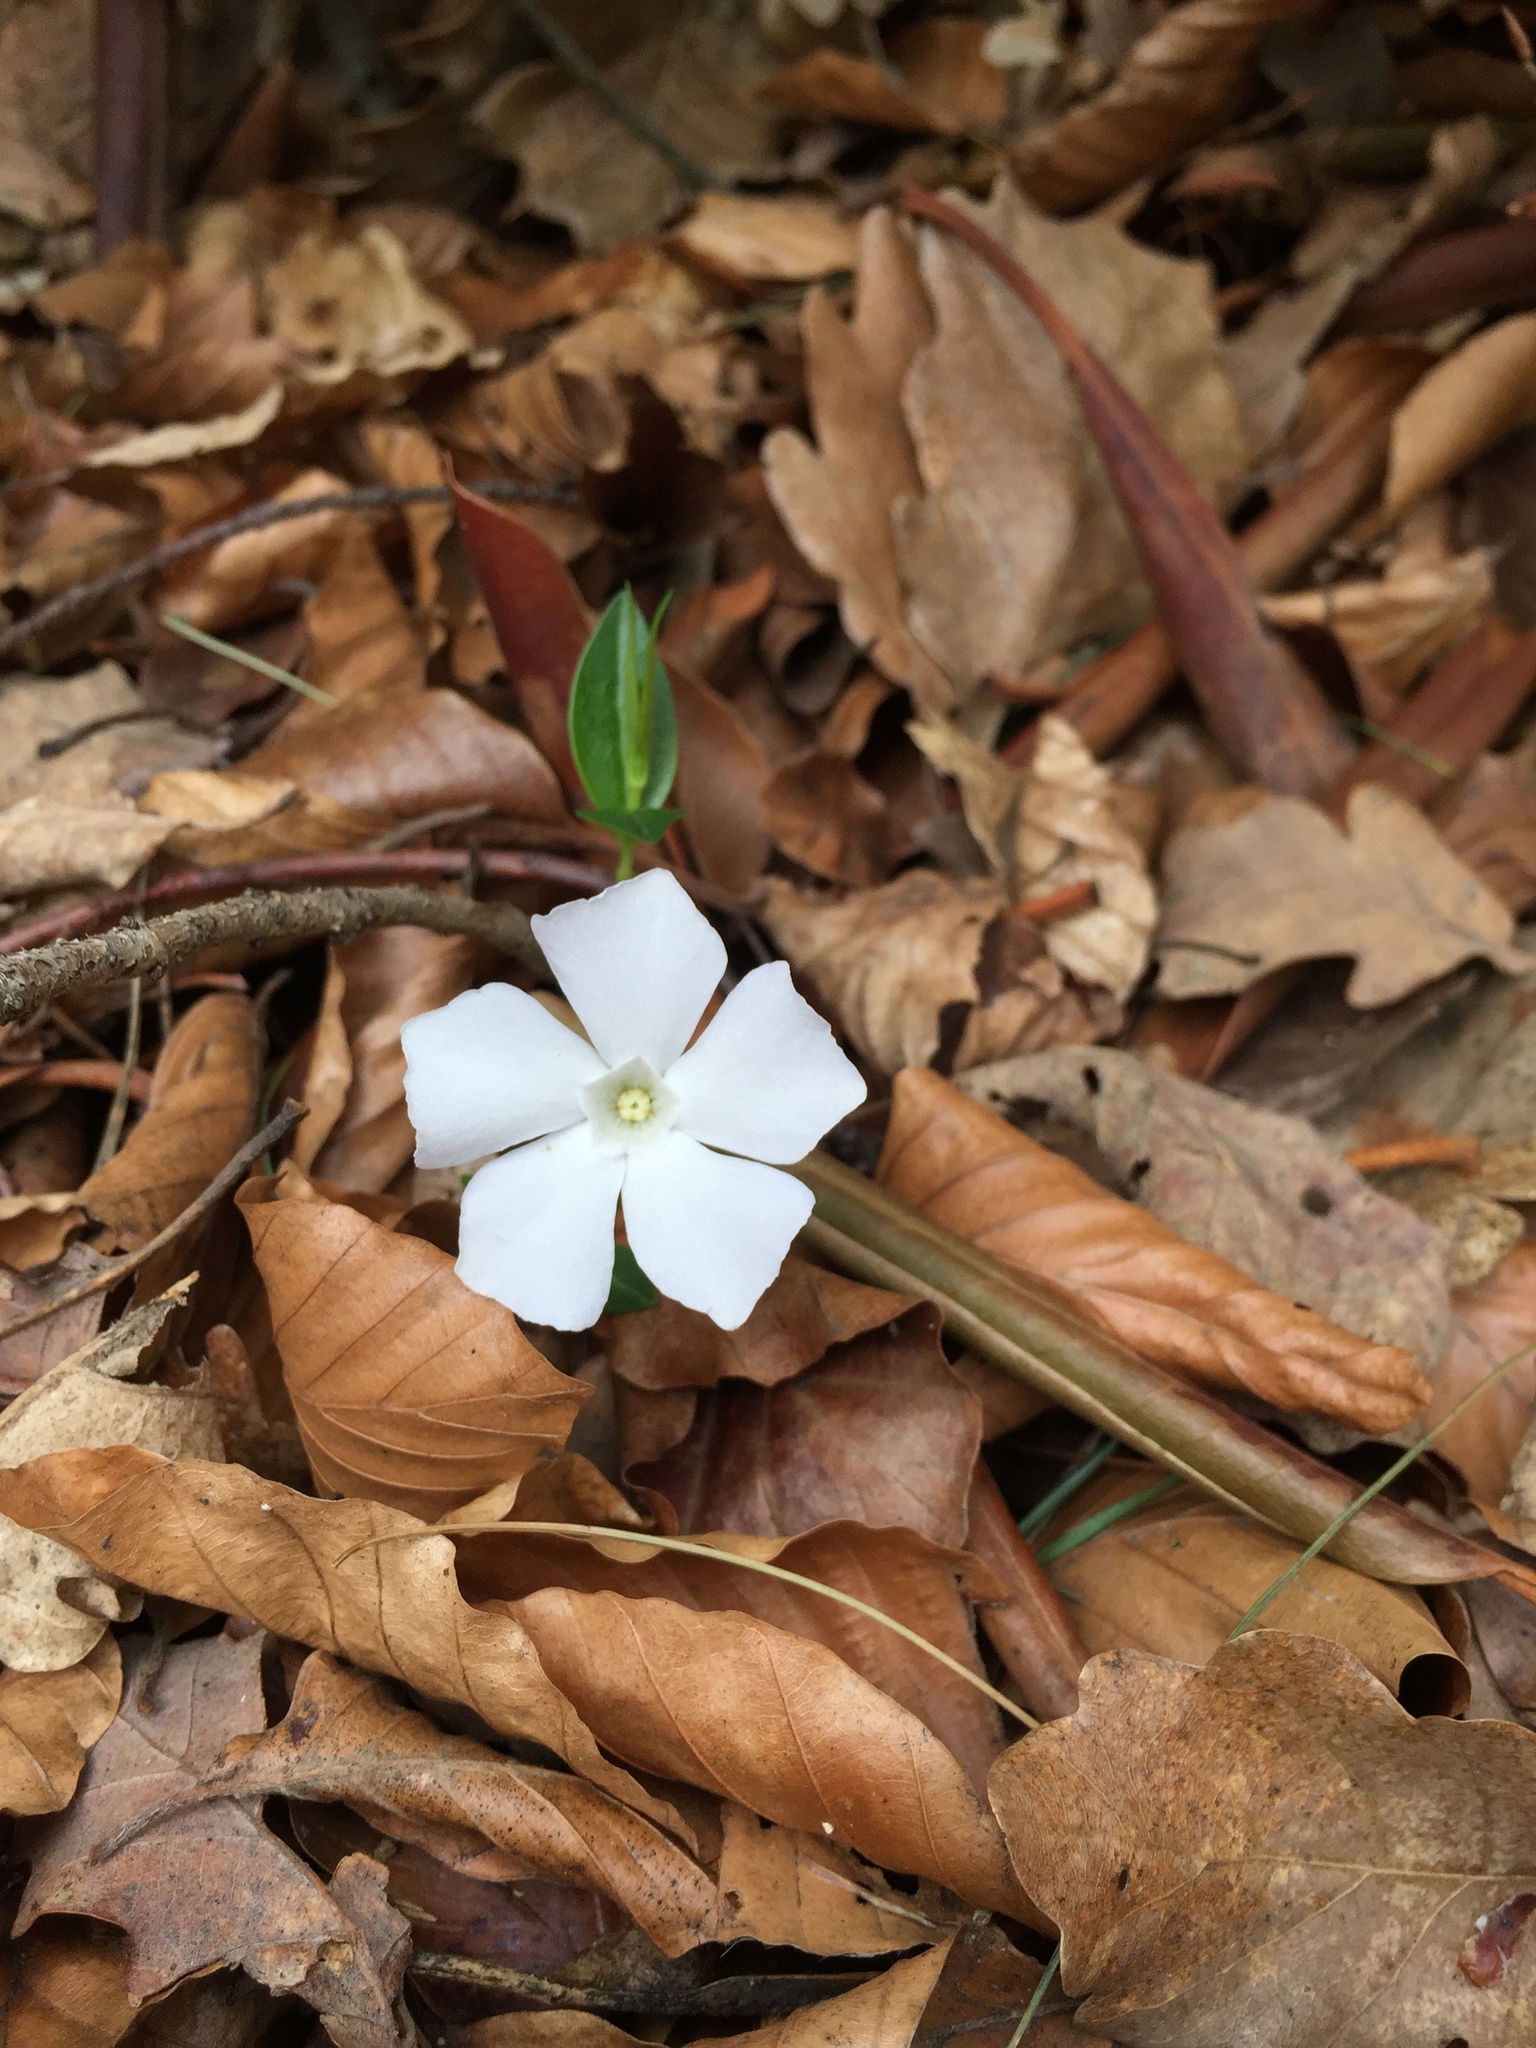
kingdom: Plantae
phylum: Tracheophyta
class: Magnoliopsida
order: Gentianales
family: Apocynaceae
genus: Vinca
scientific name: Vinca minor
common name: Lesser periwinkle
